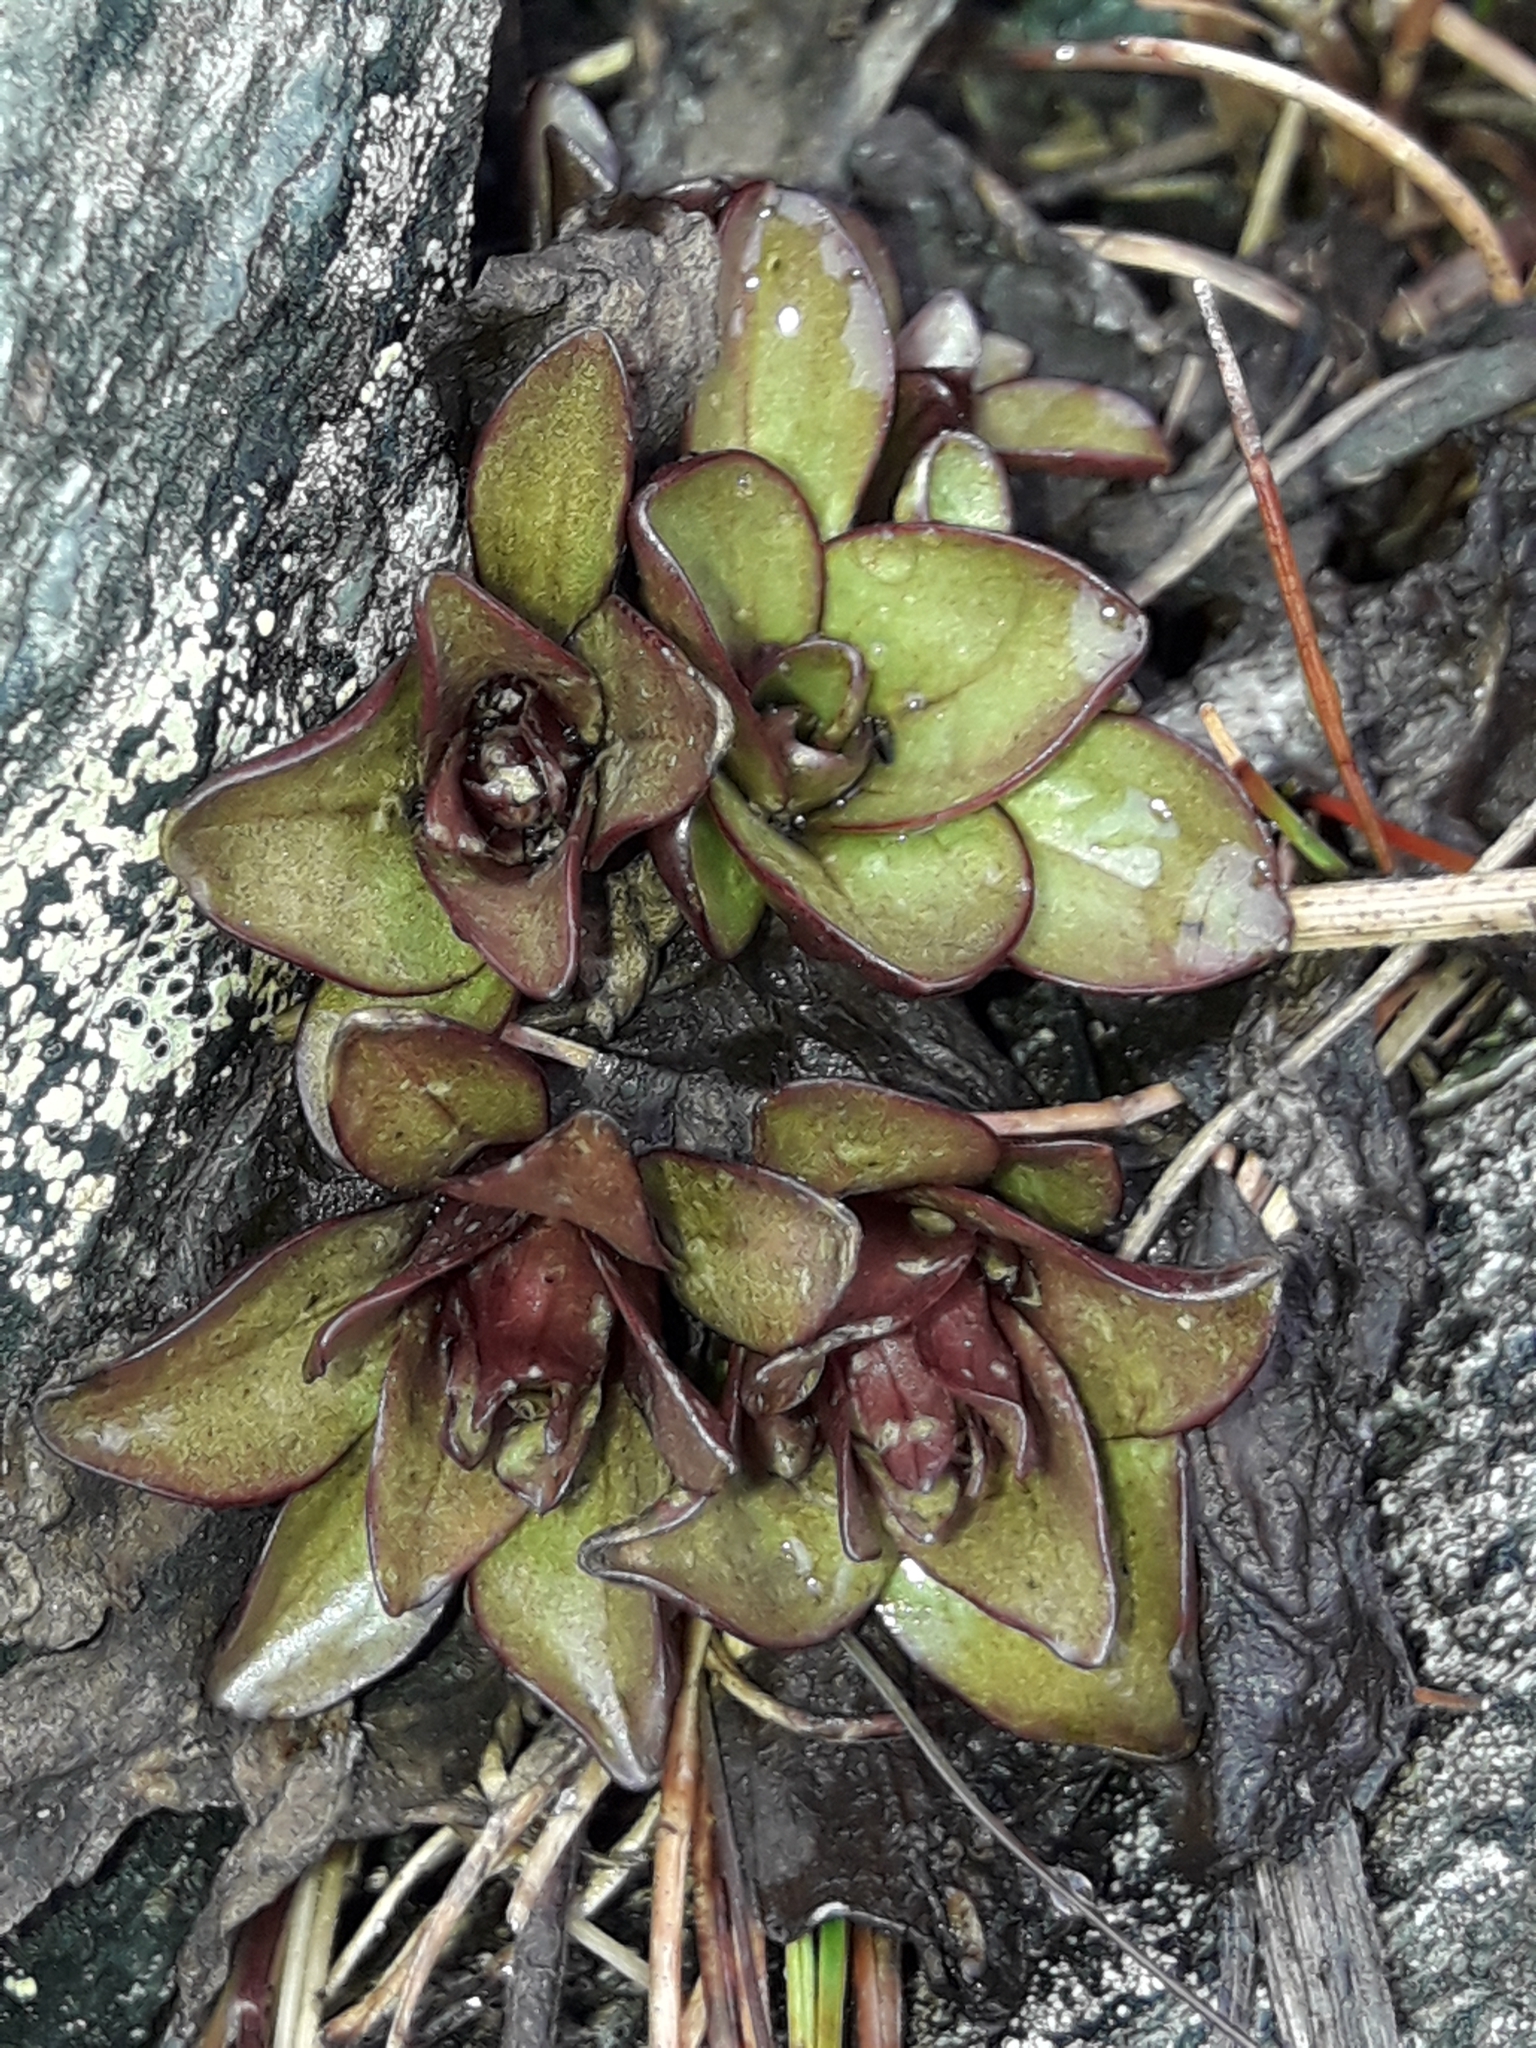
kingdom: Plantae
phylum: Tracheophyta
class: Magnoliopsida
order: Gentianales
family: Gentianaceae
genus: Gentianella
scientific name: Gentianella bellidifolia
